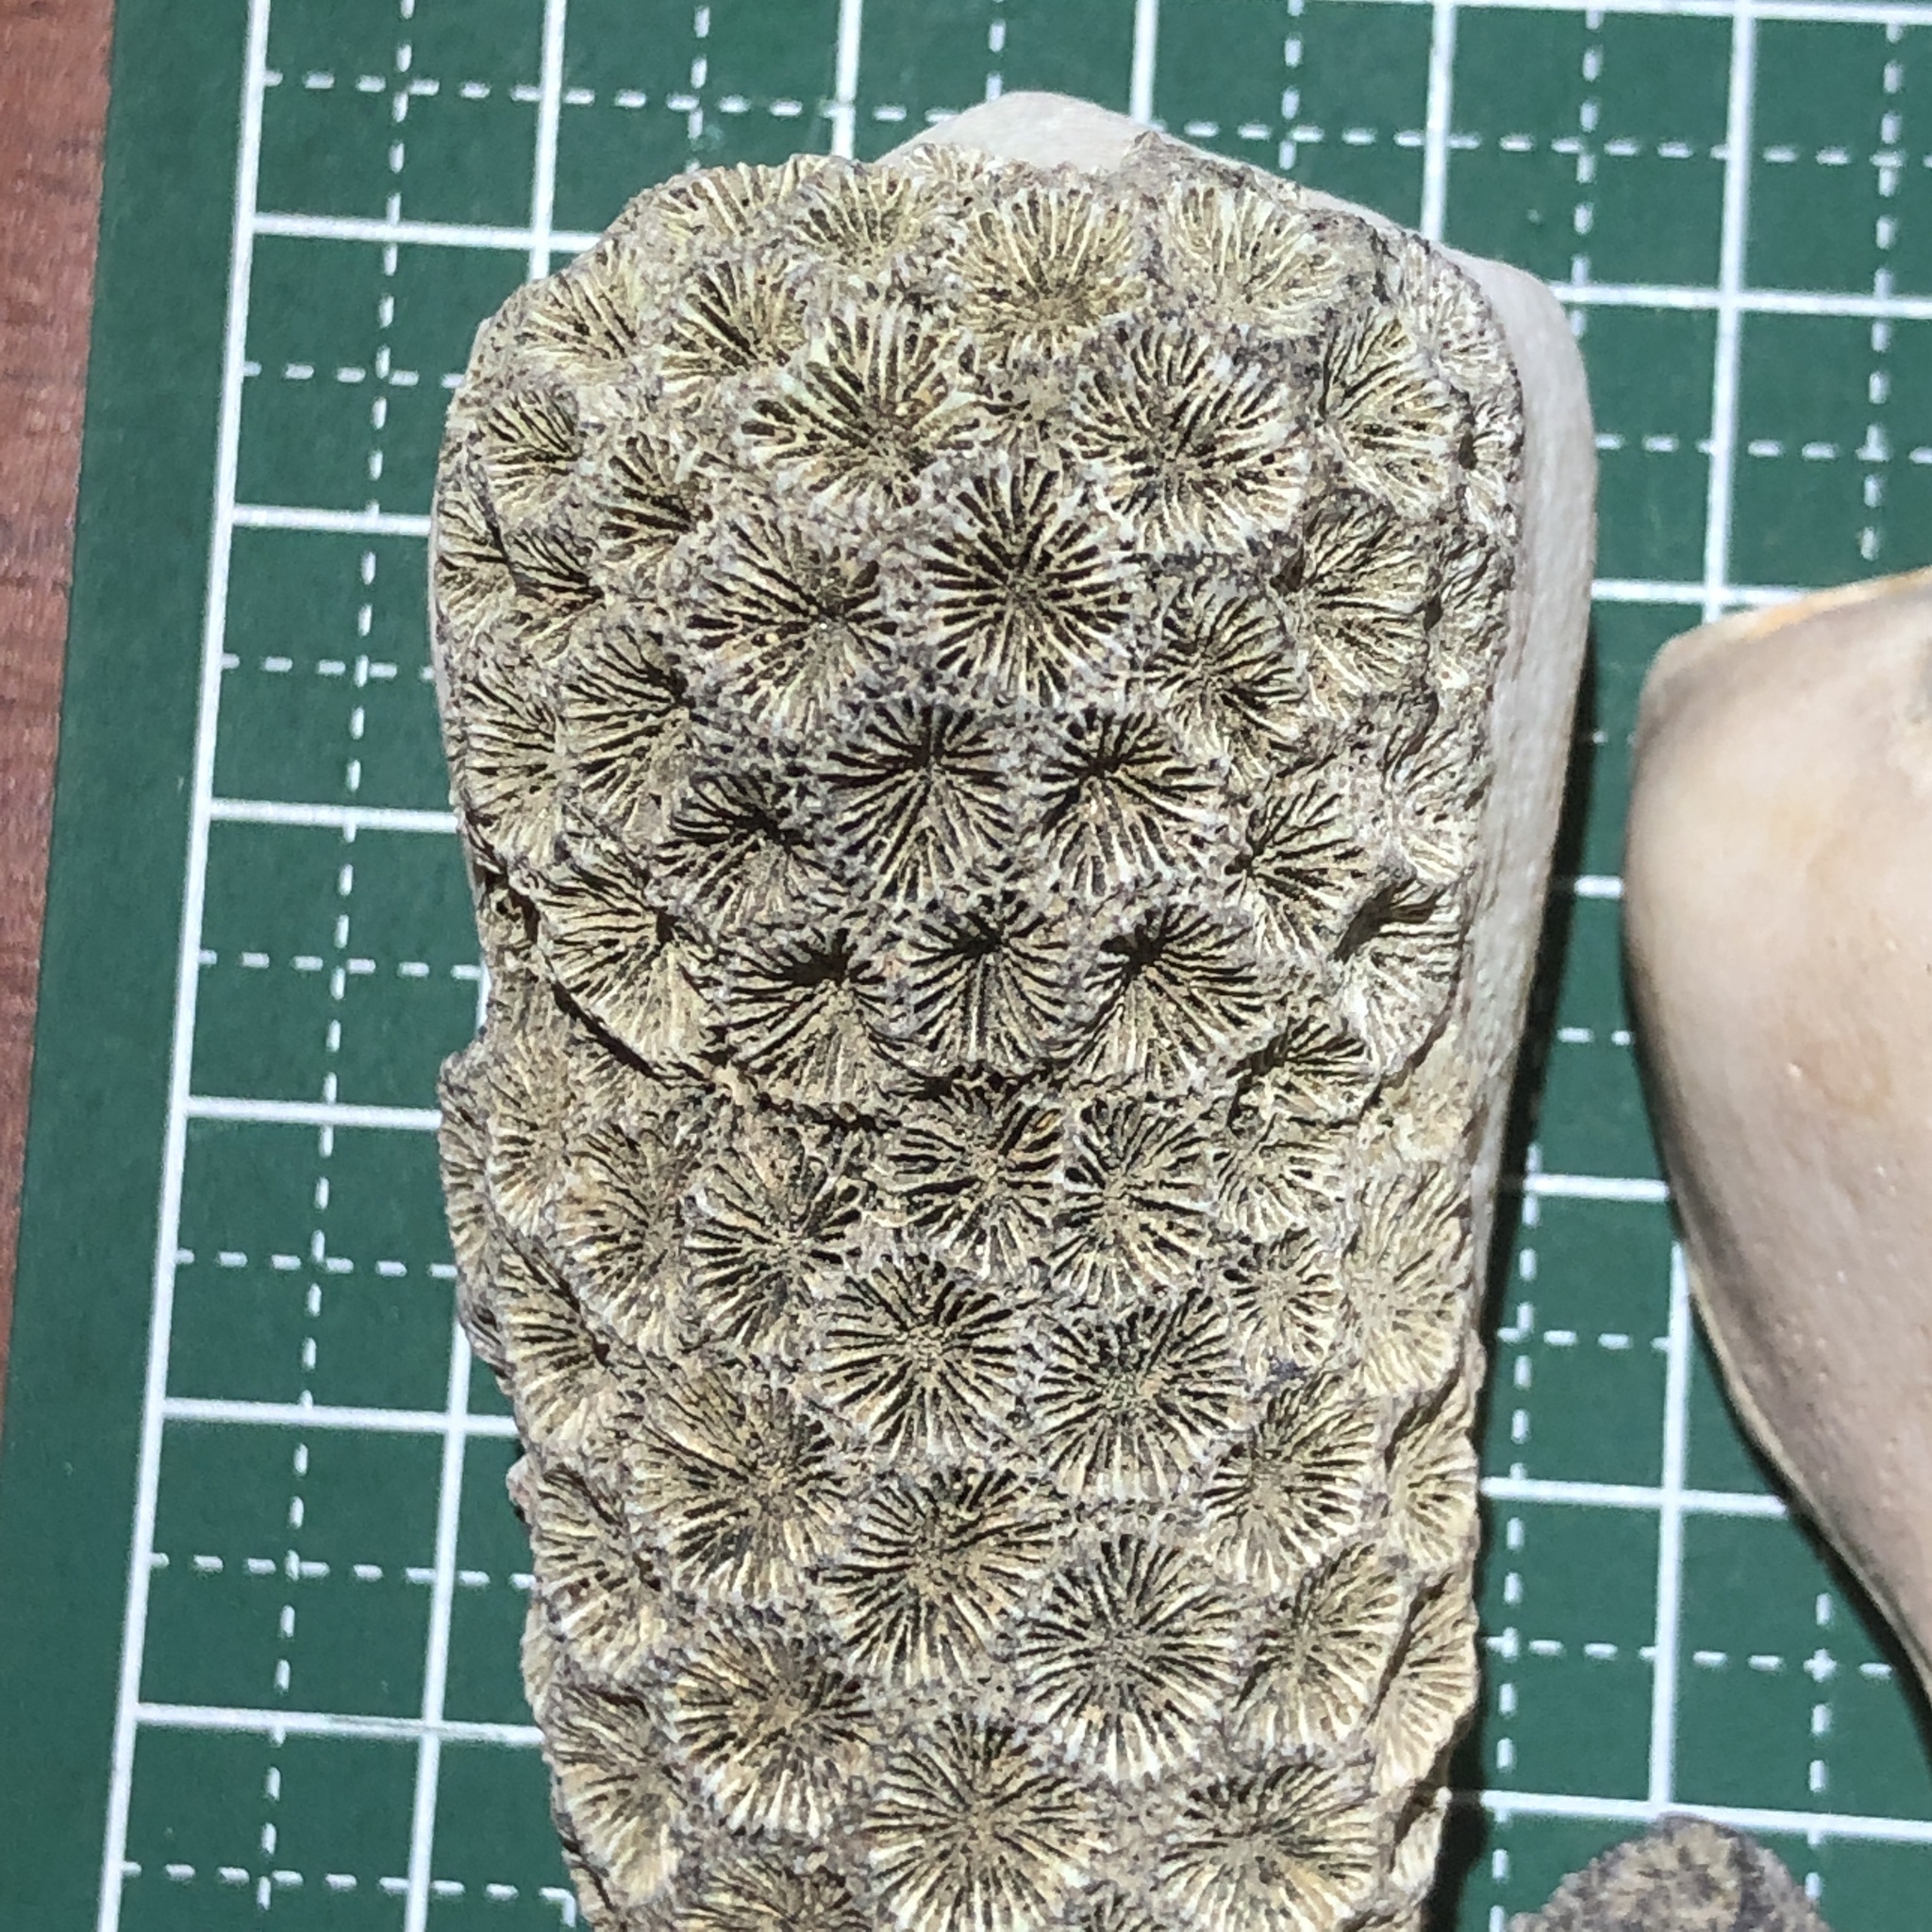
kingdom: Animalia
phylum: Cnidaria
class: Anthozoa
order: Scleractinia
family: Oulastreidae
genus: Oulastrea
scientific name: Oulastrea crispata
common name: Zebra coral
